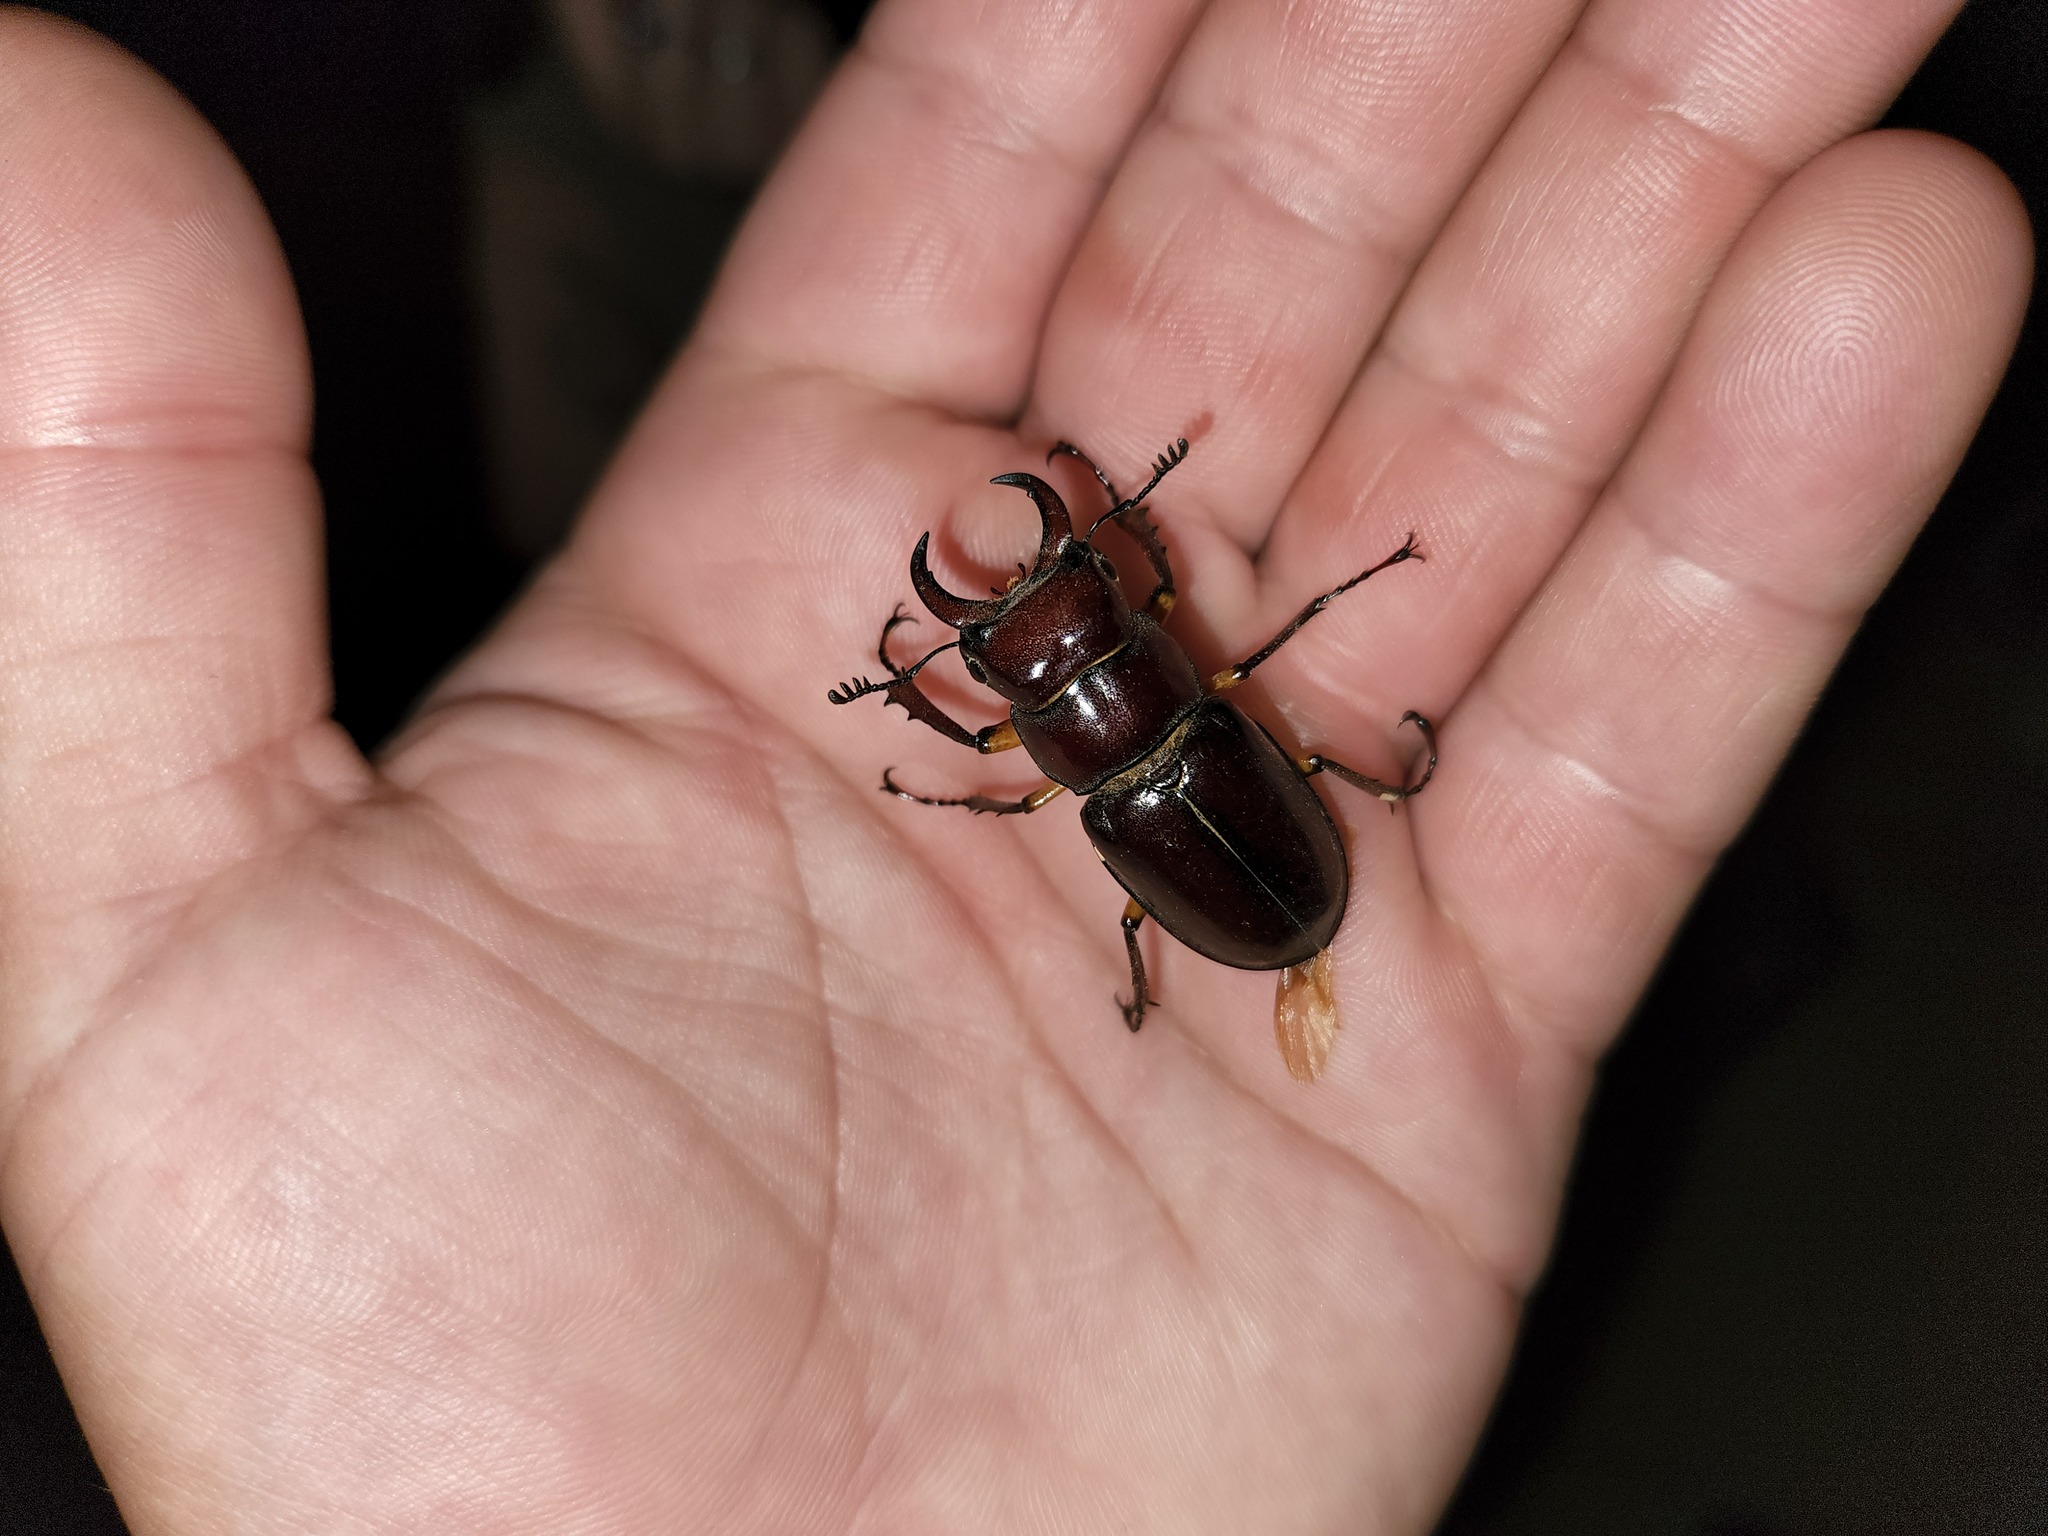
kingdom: Animalia
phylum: Arthropoda
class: Insecta
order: Coleoptera
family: Lucanidae
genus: Lucanus
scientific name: Lucanus capreolus
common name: Stag beetle
